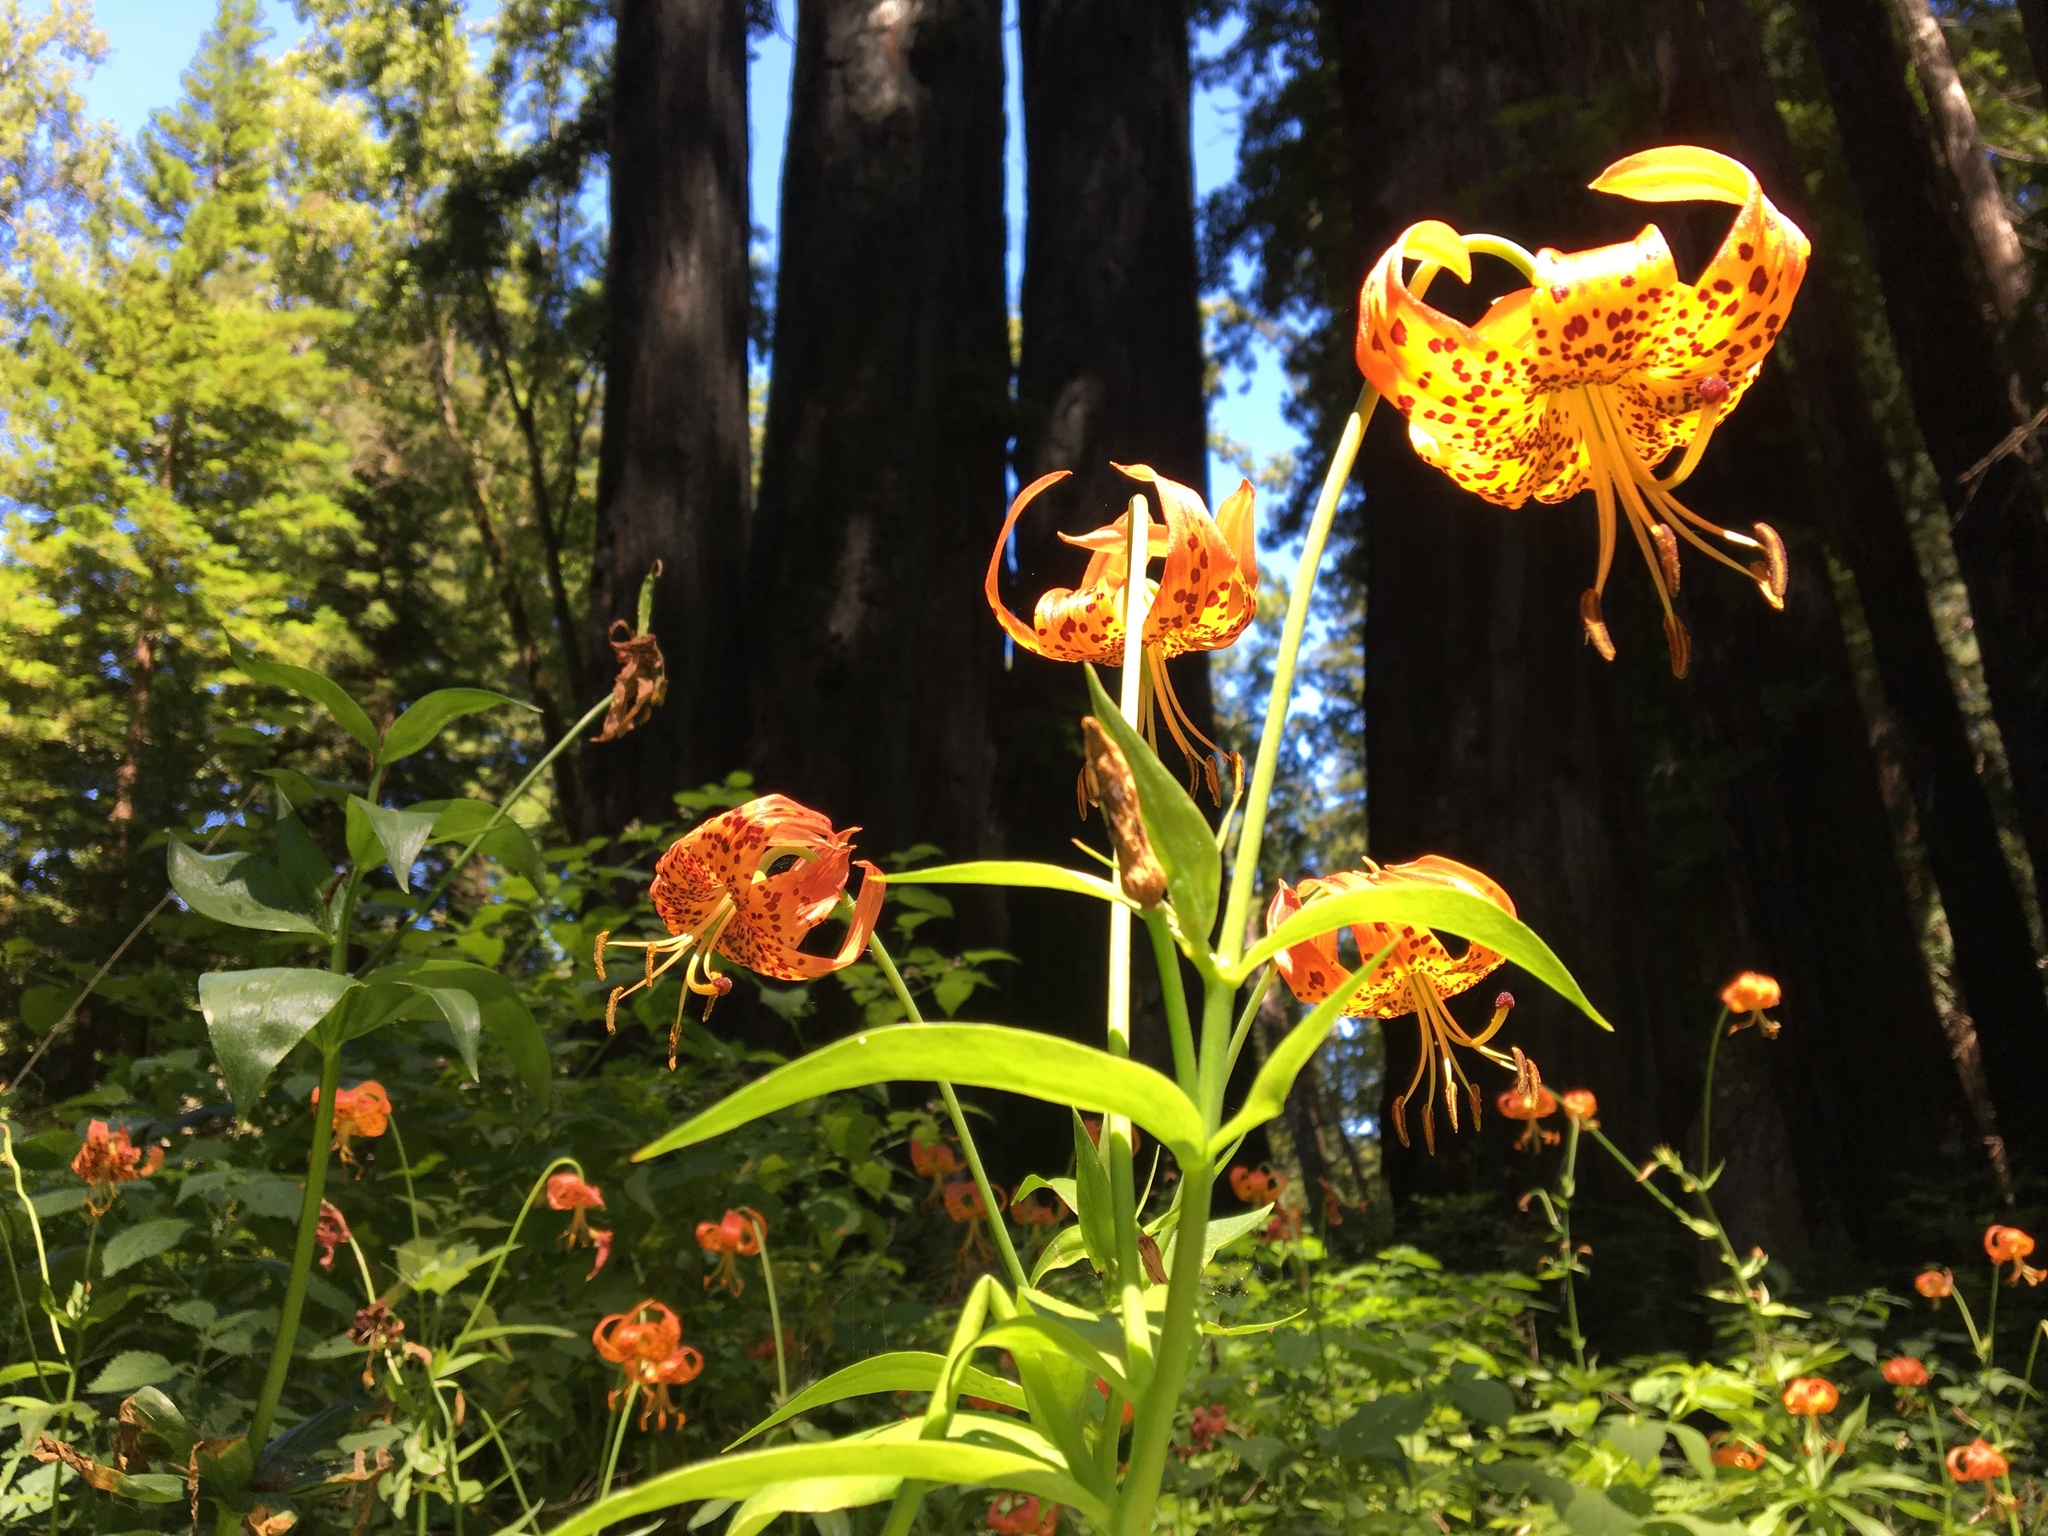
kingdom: Plantae
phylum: Tracheophyta
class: Liliopsida
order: Liliales
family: Liliaceae
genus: Lilium
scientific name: Lilium pardalinum
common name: Panther lily
